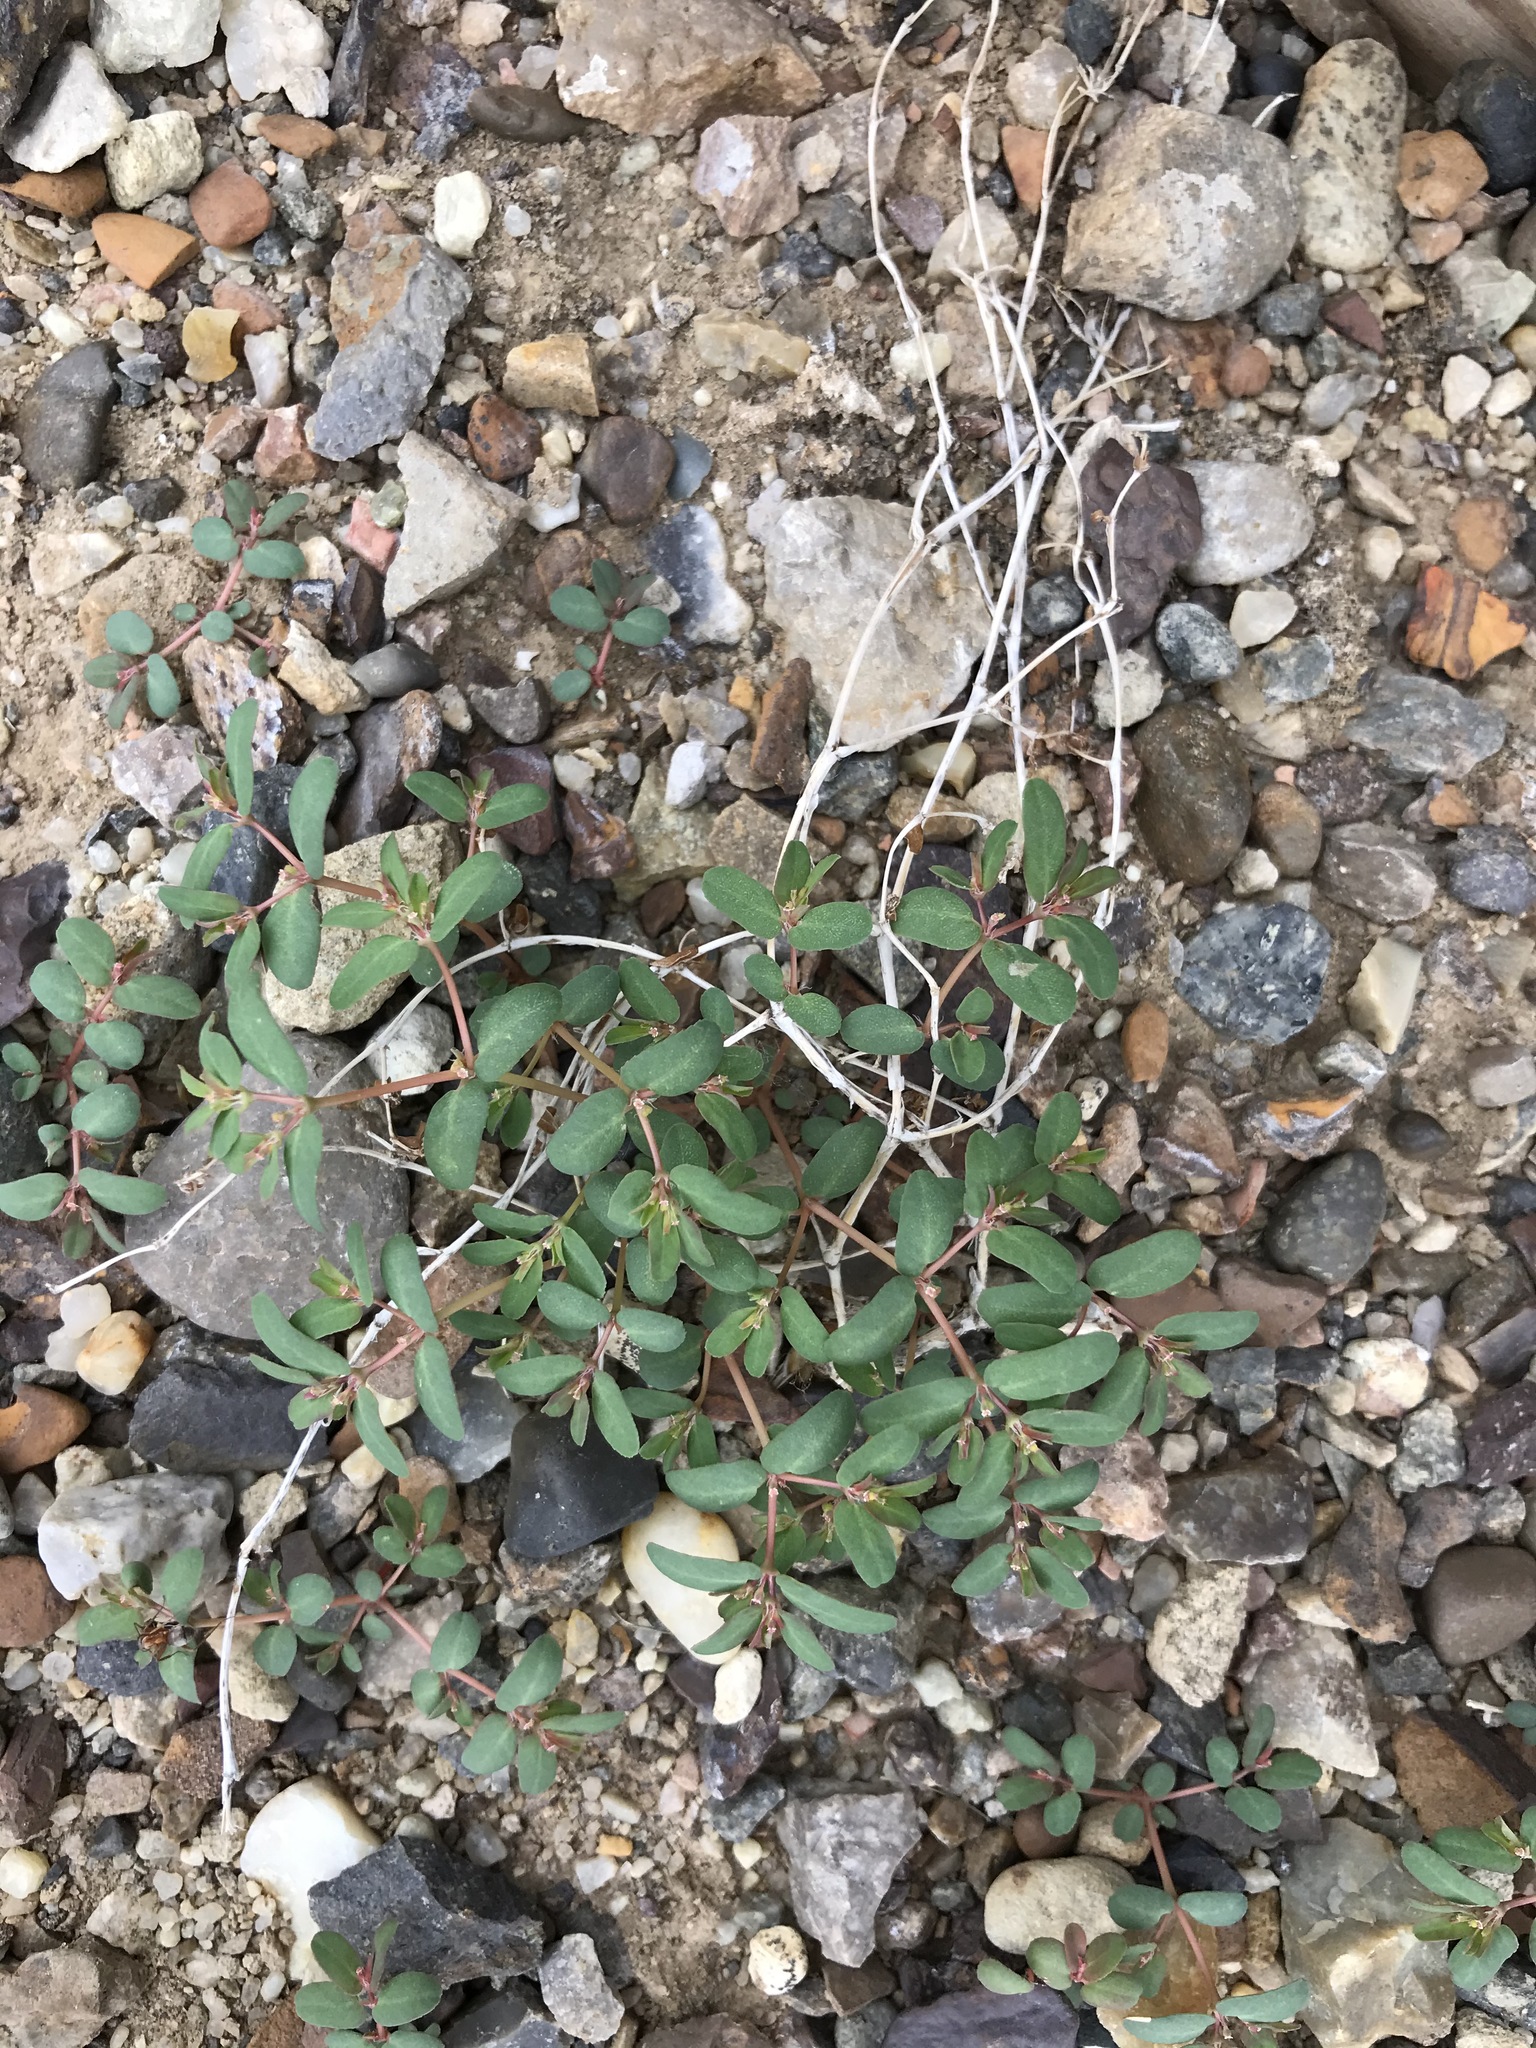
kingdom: Plantae
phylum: Tracheophyta
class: Magnoliopsida
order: Malpighiales
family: Euphorbiaceae
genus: Euphorbia
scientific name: Euphorbia glyptosperma
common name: Corrugate-seeded spurge
